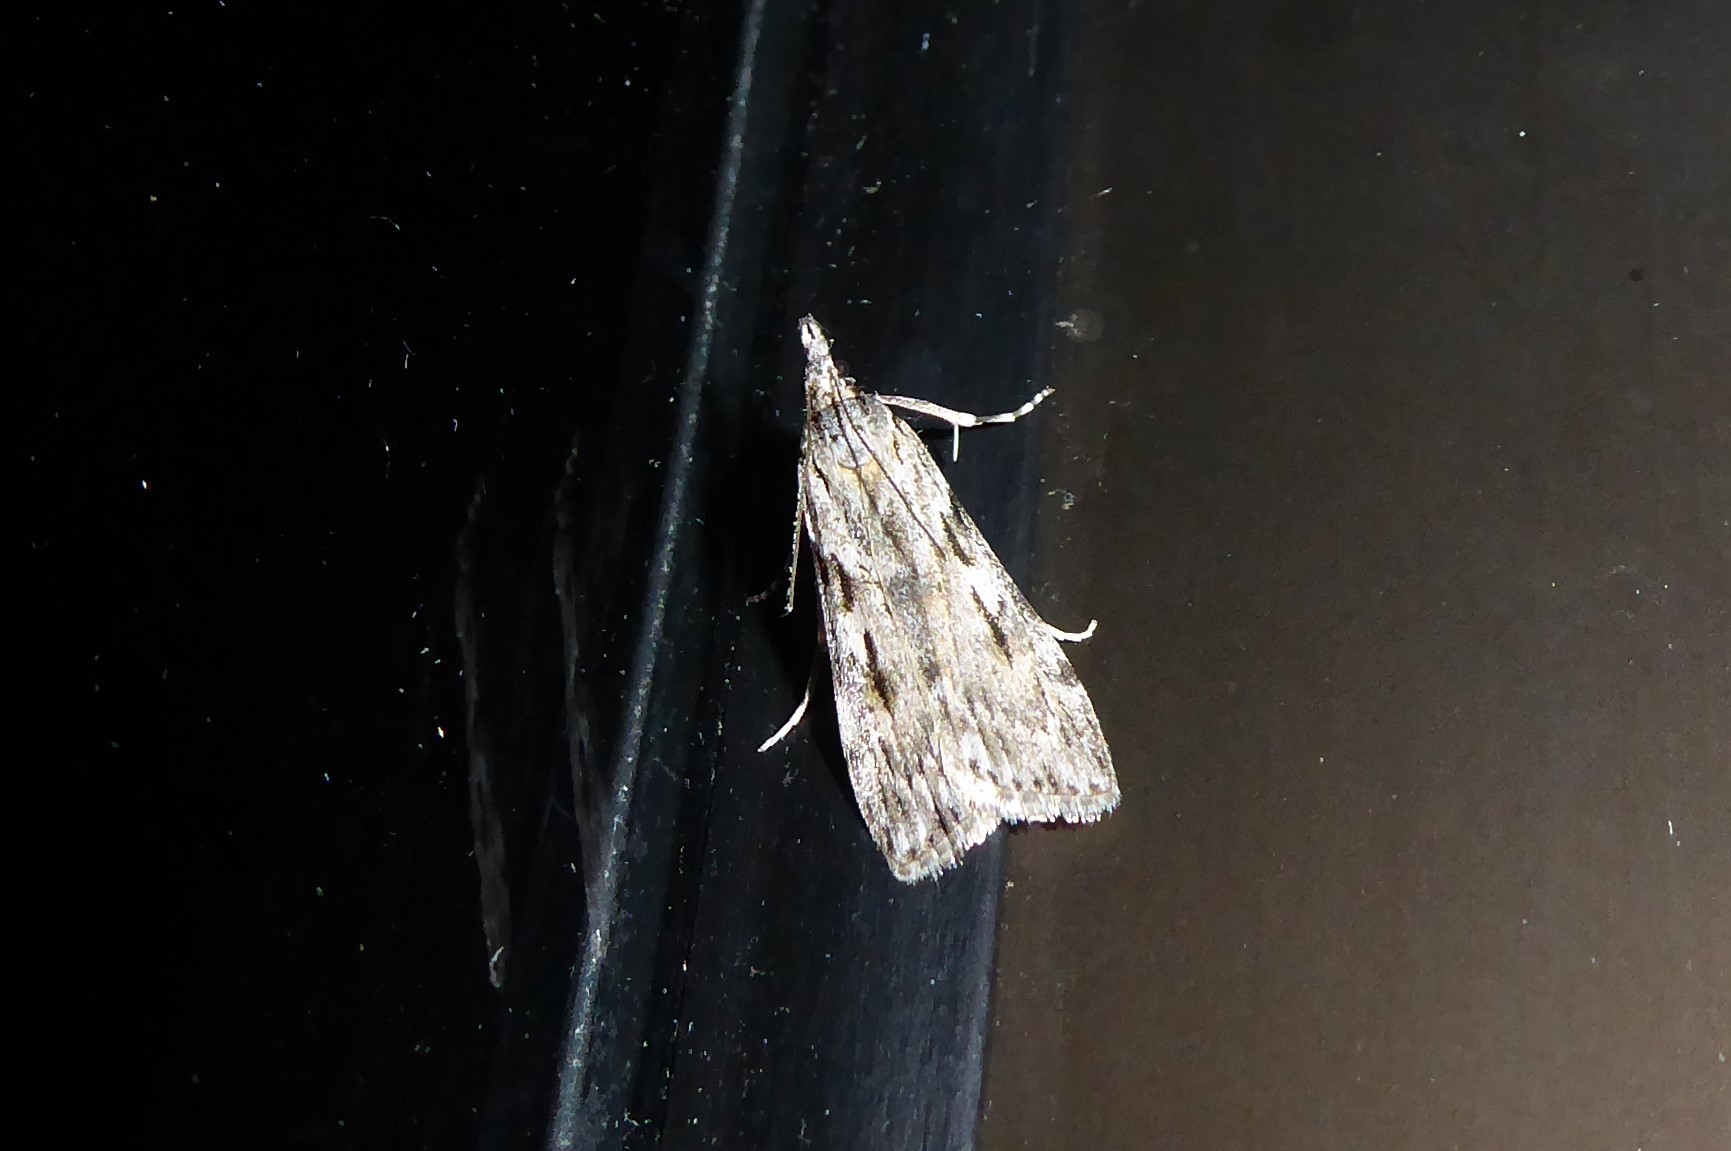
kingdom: Animalia
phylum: Arthropoda
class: Insecta
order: Lepidoptera
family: Crambidae
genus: Scoparia
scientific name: Scoparia halopis
